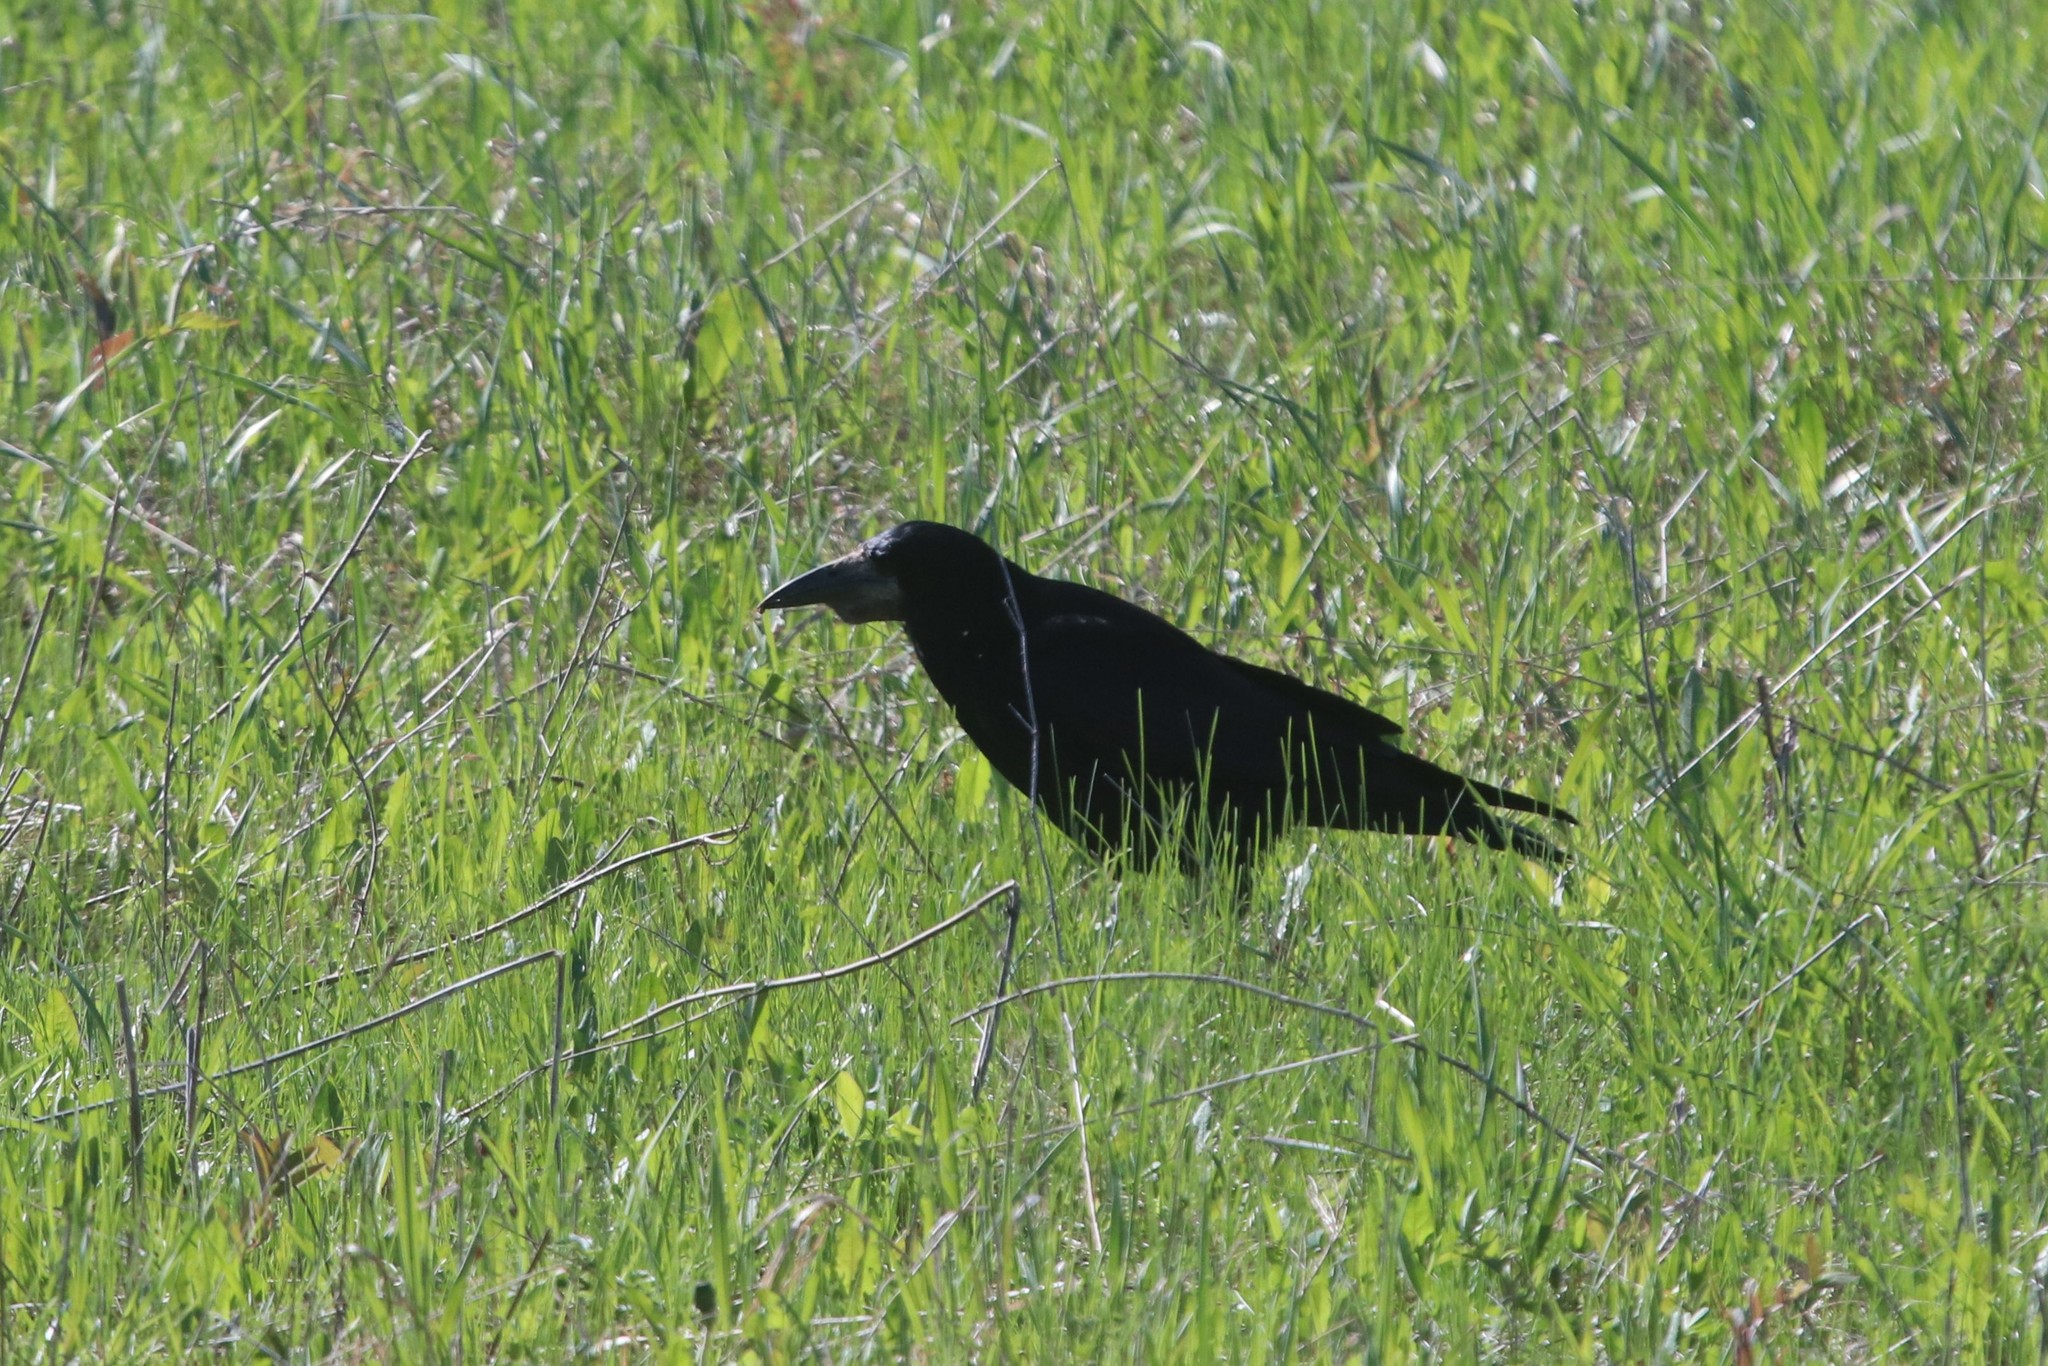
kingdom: Animalia
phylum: Chordata
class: Aves
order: Passeriformes
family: Corvidae
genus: Corvus
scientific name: Corvus frugilegus
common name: Rook
